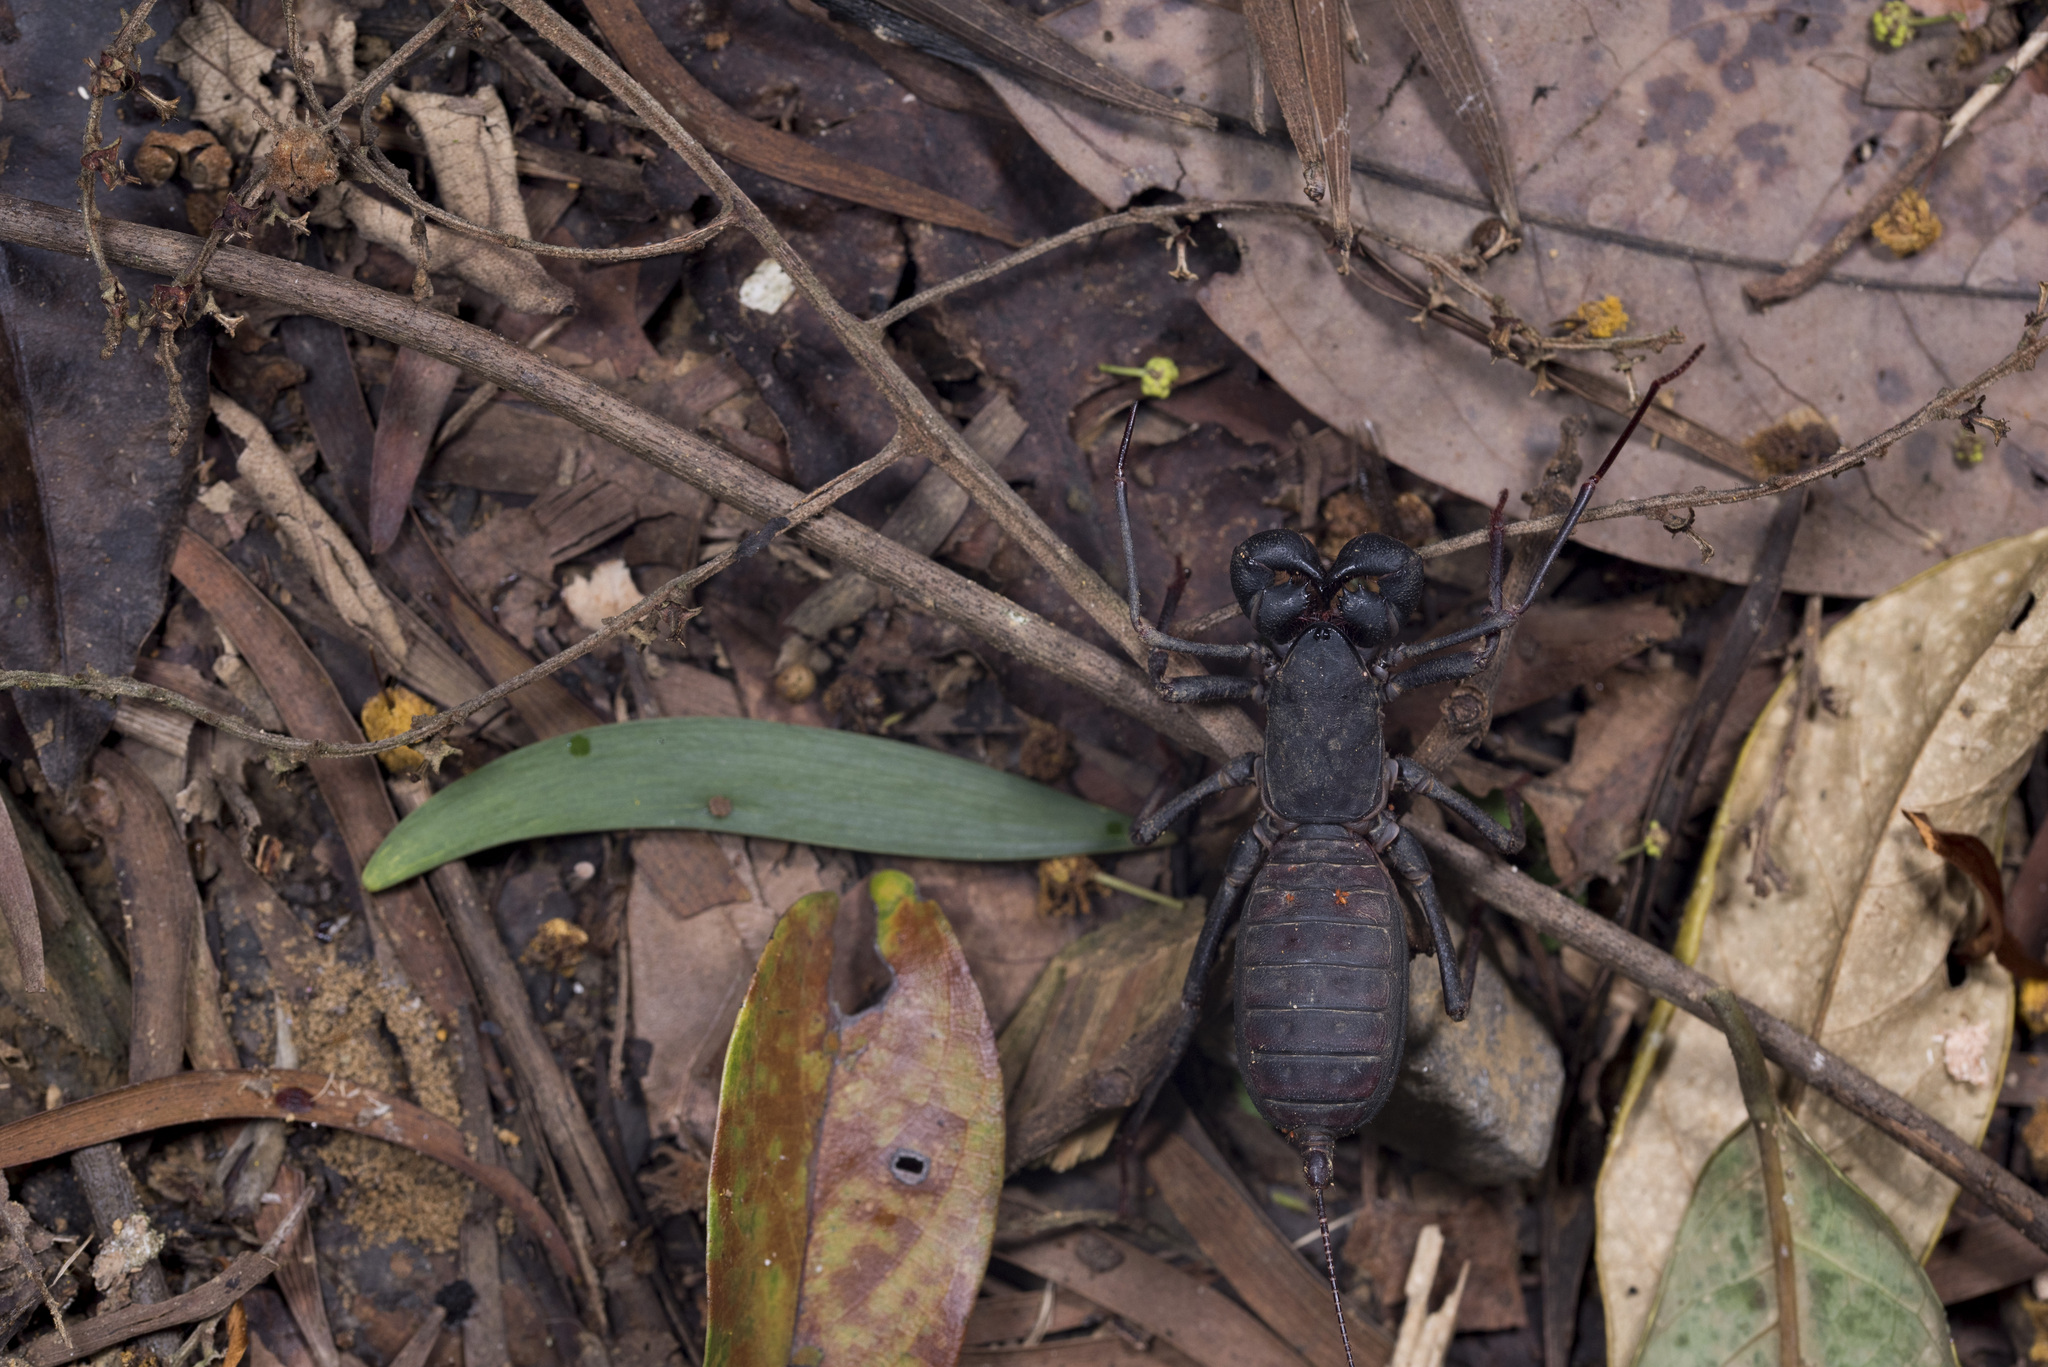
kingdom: Animalia
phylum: Arthropoda
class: Arachnida
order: Uropygi
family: Thelyphonidae
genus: Typopeltis
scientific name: Typopeltis crucifer
